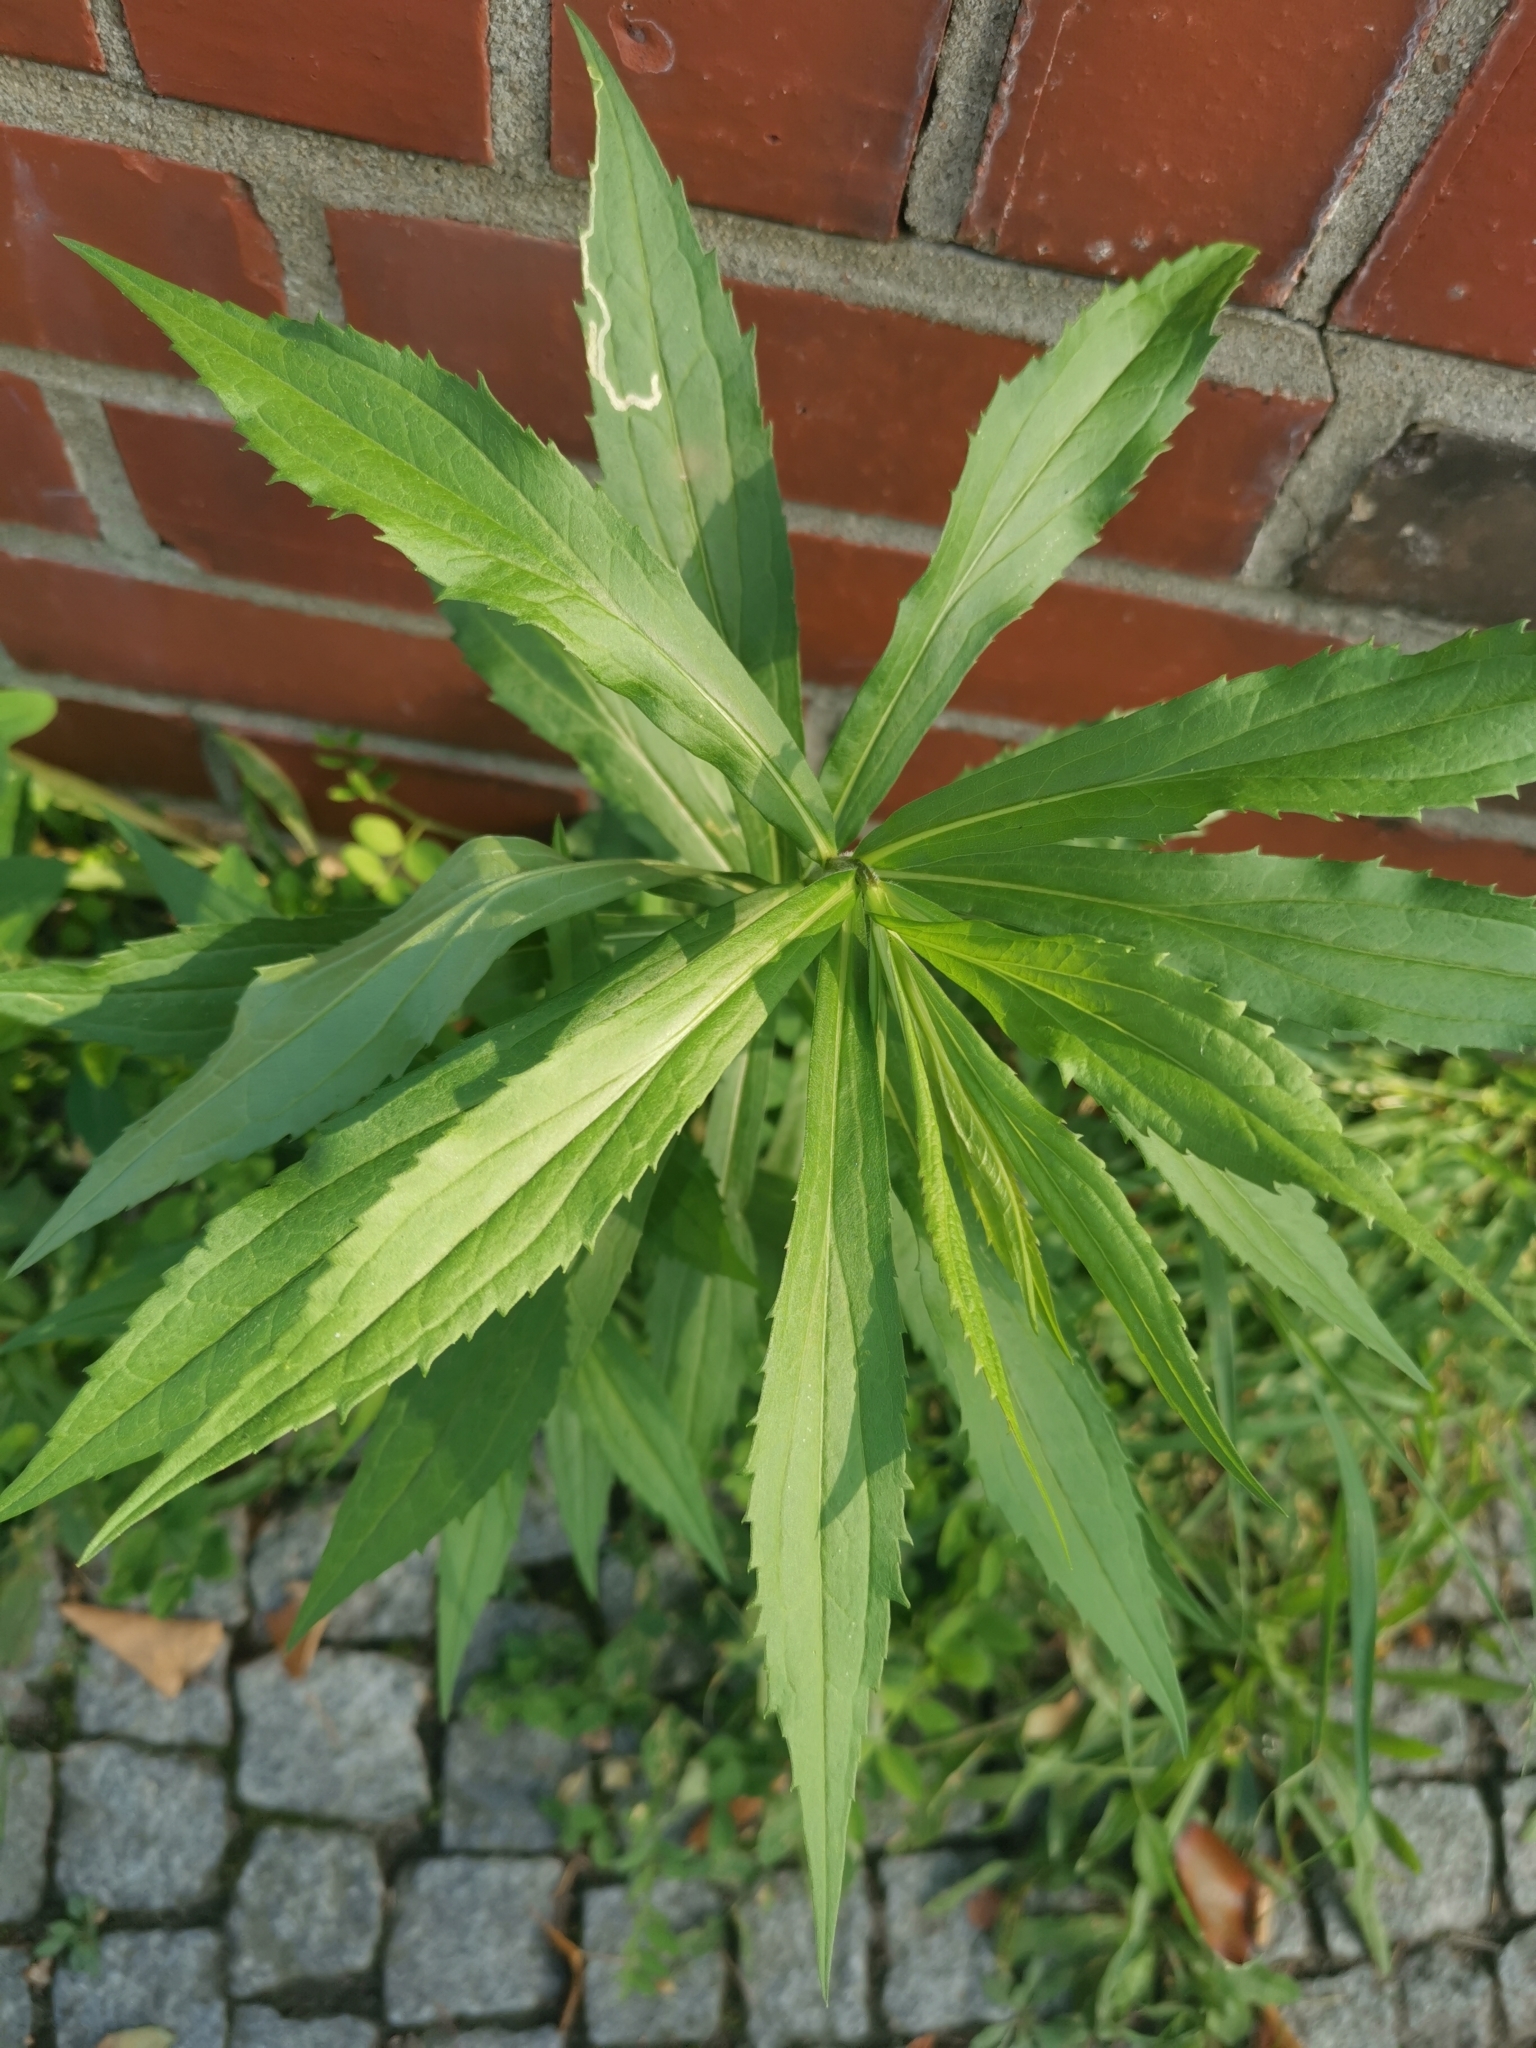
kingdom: Plantae
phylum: Tracheophyta
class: Magnoliopsida
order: Asterales
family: Asteraceae
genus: Solidago
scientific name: Solidago canadensis
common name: Canada goldenrod
